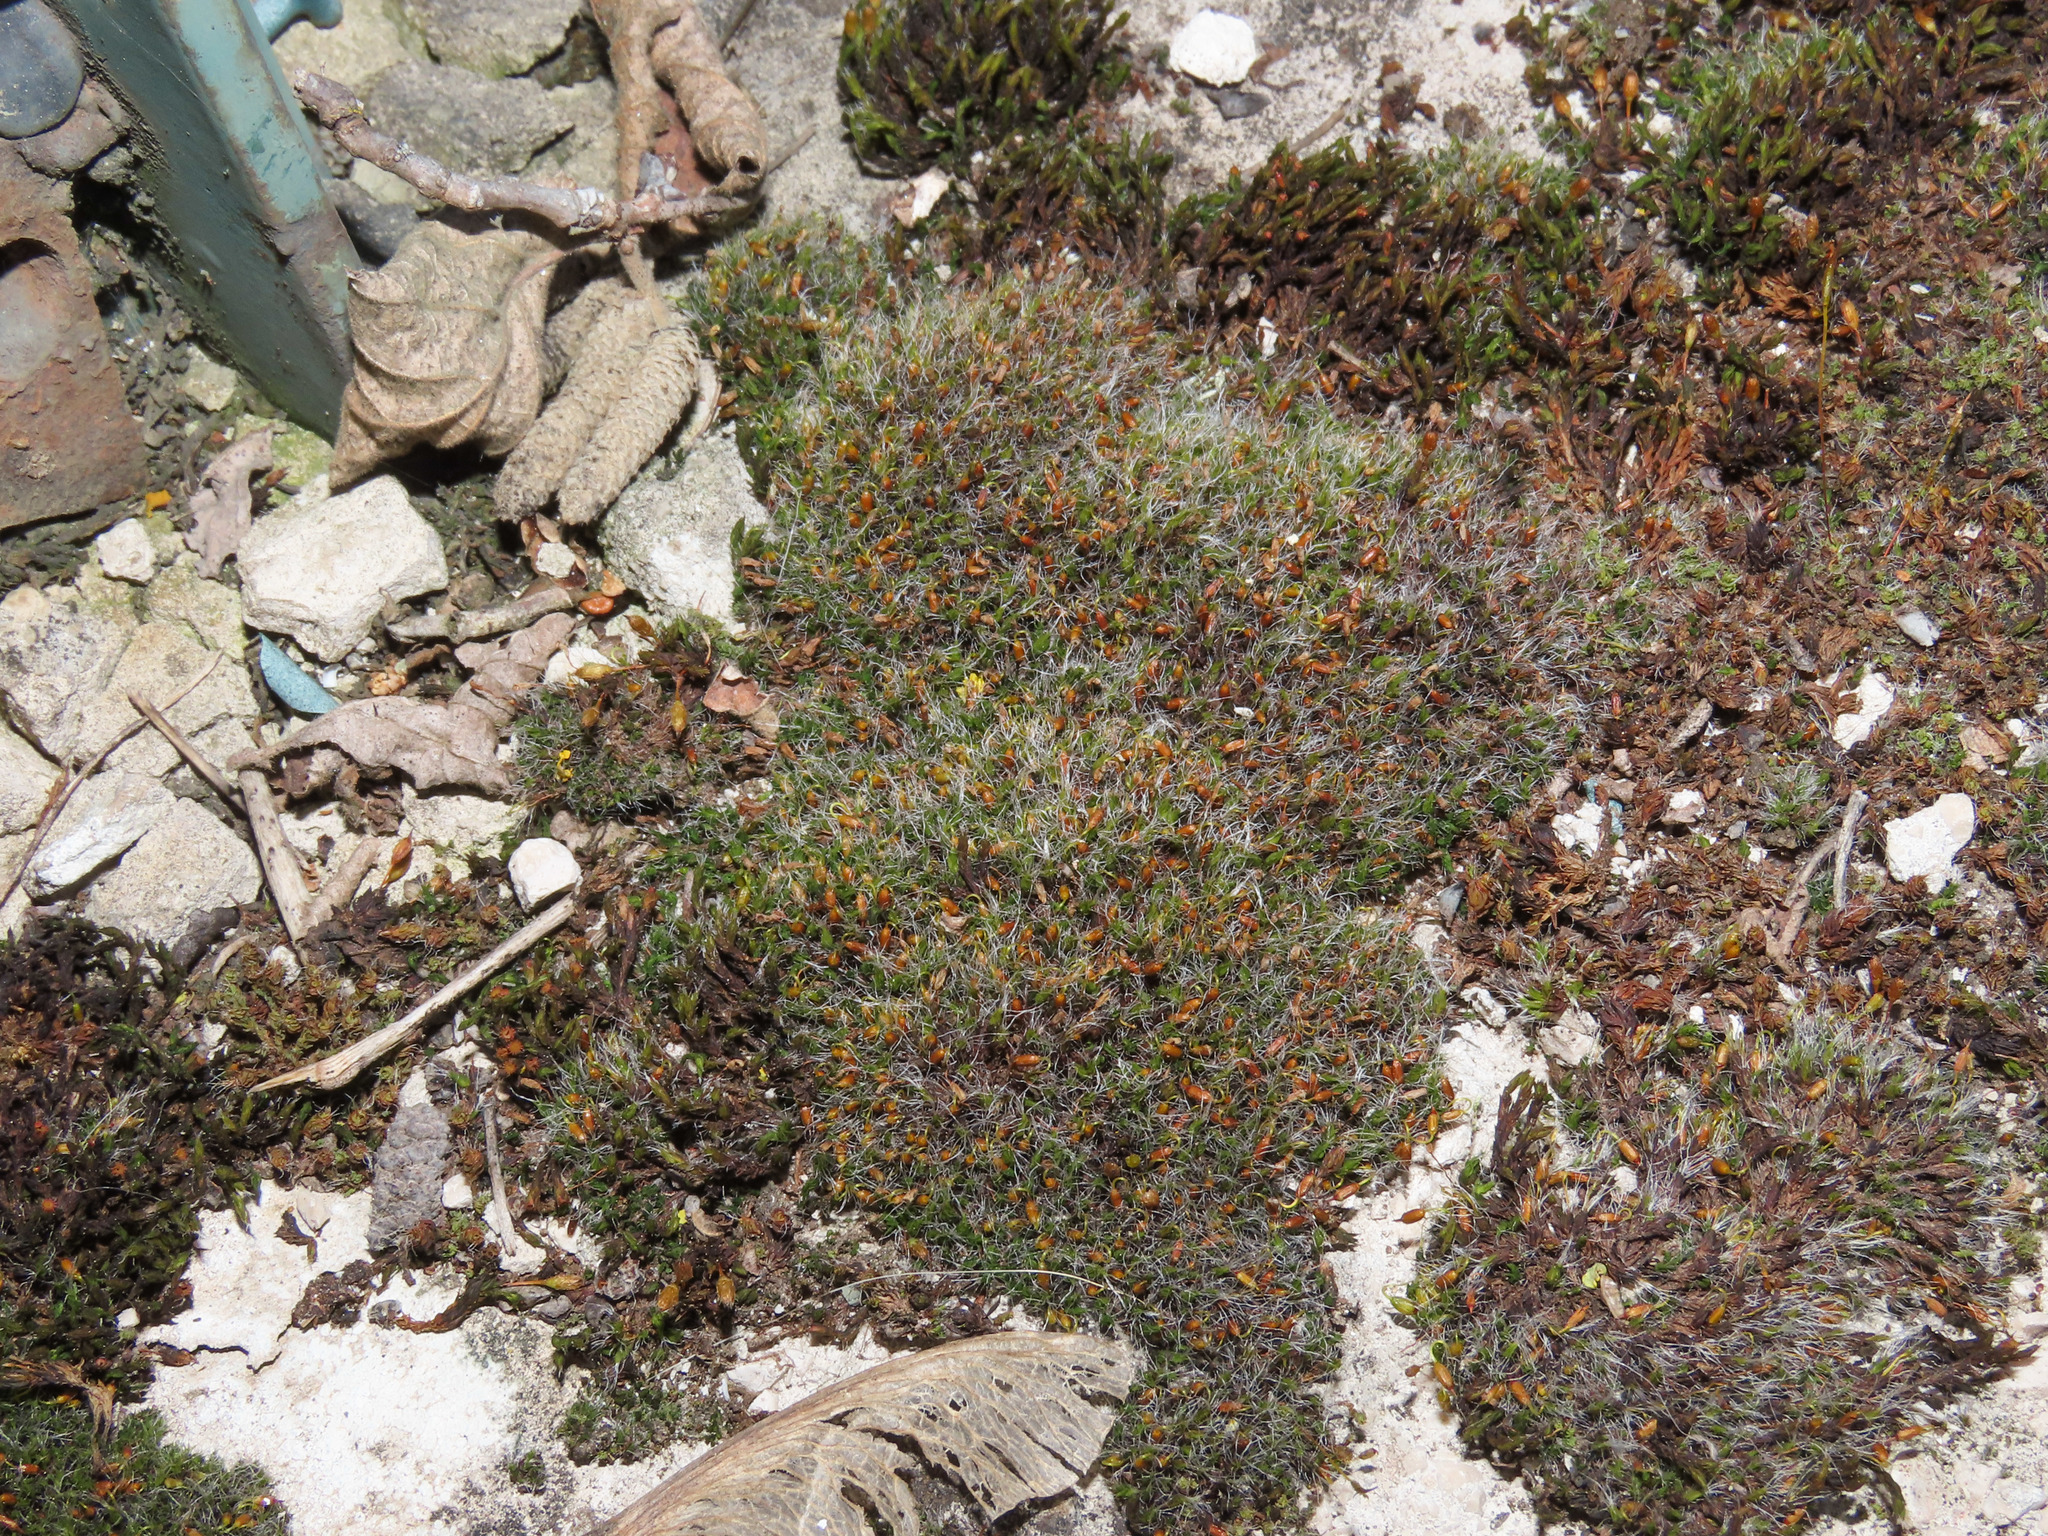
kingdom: Plantae
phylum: Bryophyta
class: Bryopsida
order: Grimmiales
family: Grimmiaceae
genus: Grimmia
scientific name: Grimmia pulvinata
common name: Grey-cushioned grimmia
